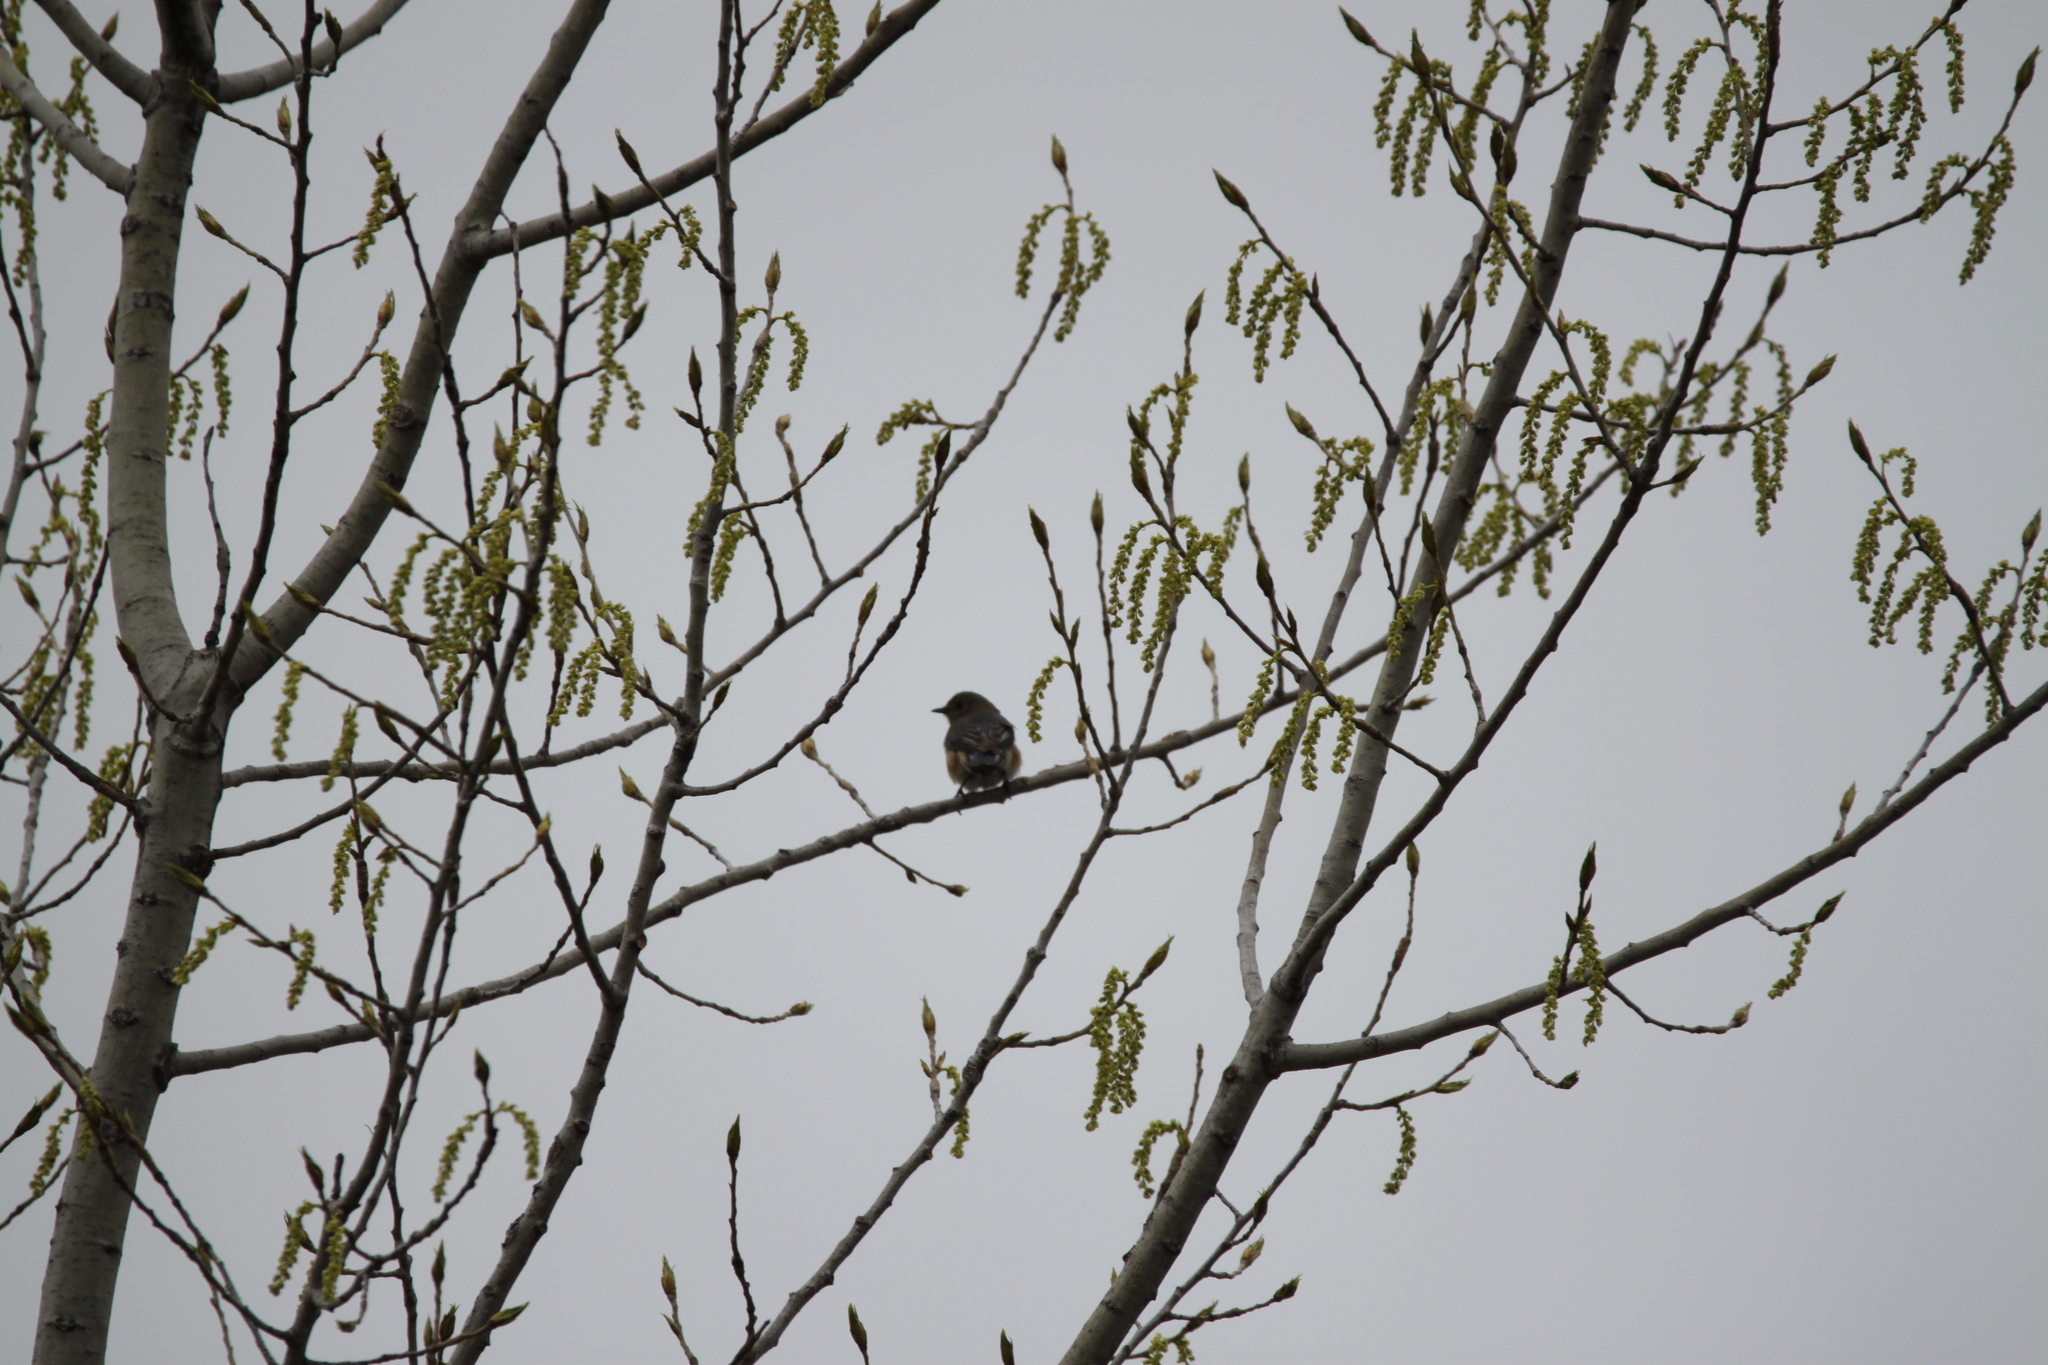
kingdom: Animalia
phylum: Chordata
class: Aves
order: Passeriformes
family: Turdidae
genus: Sialia
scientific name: Sialia sialis
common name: Eastern bluebird
